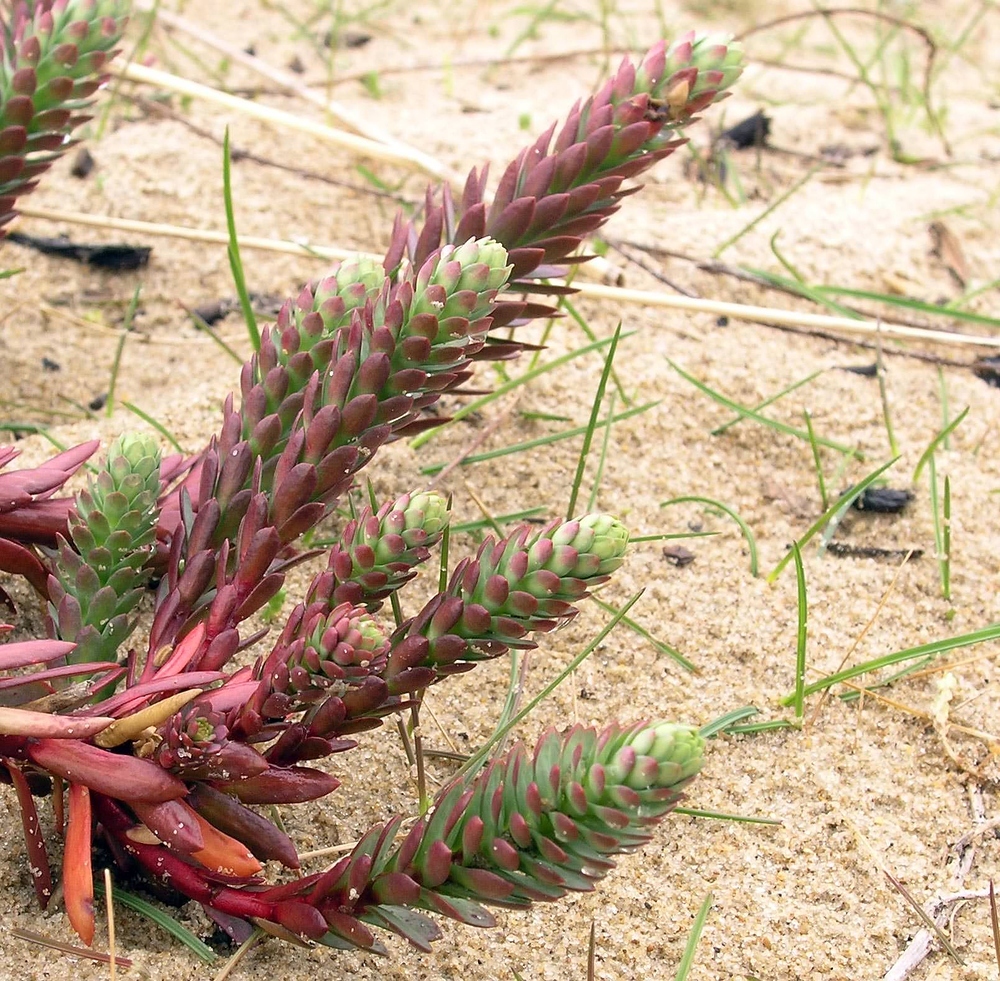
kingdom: Plantae
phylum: Tracheophyta
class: Magnoliopsida
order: Malpighiales
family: Euphorbiaceae
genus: Euphorbia
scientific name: Euphorbia paralias
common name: Sea spurge
